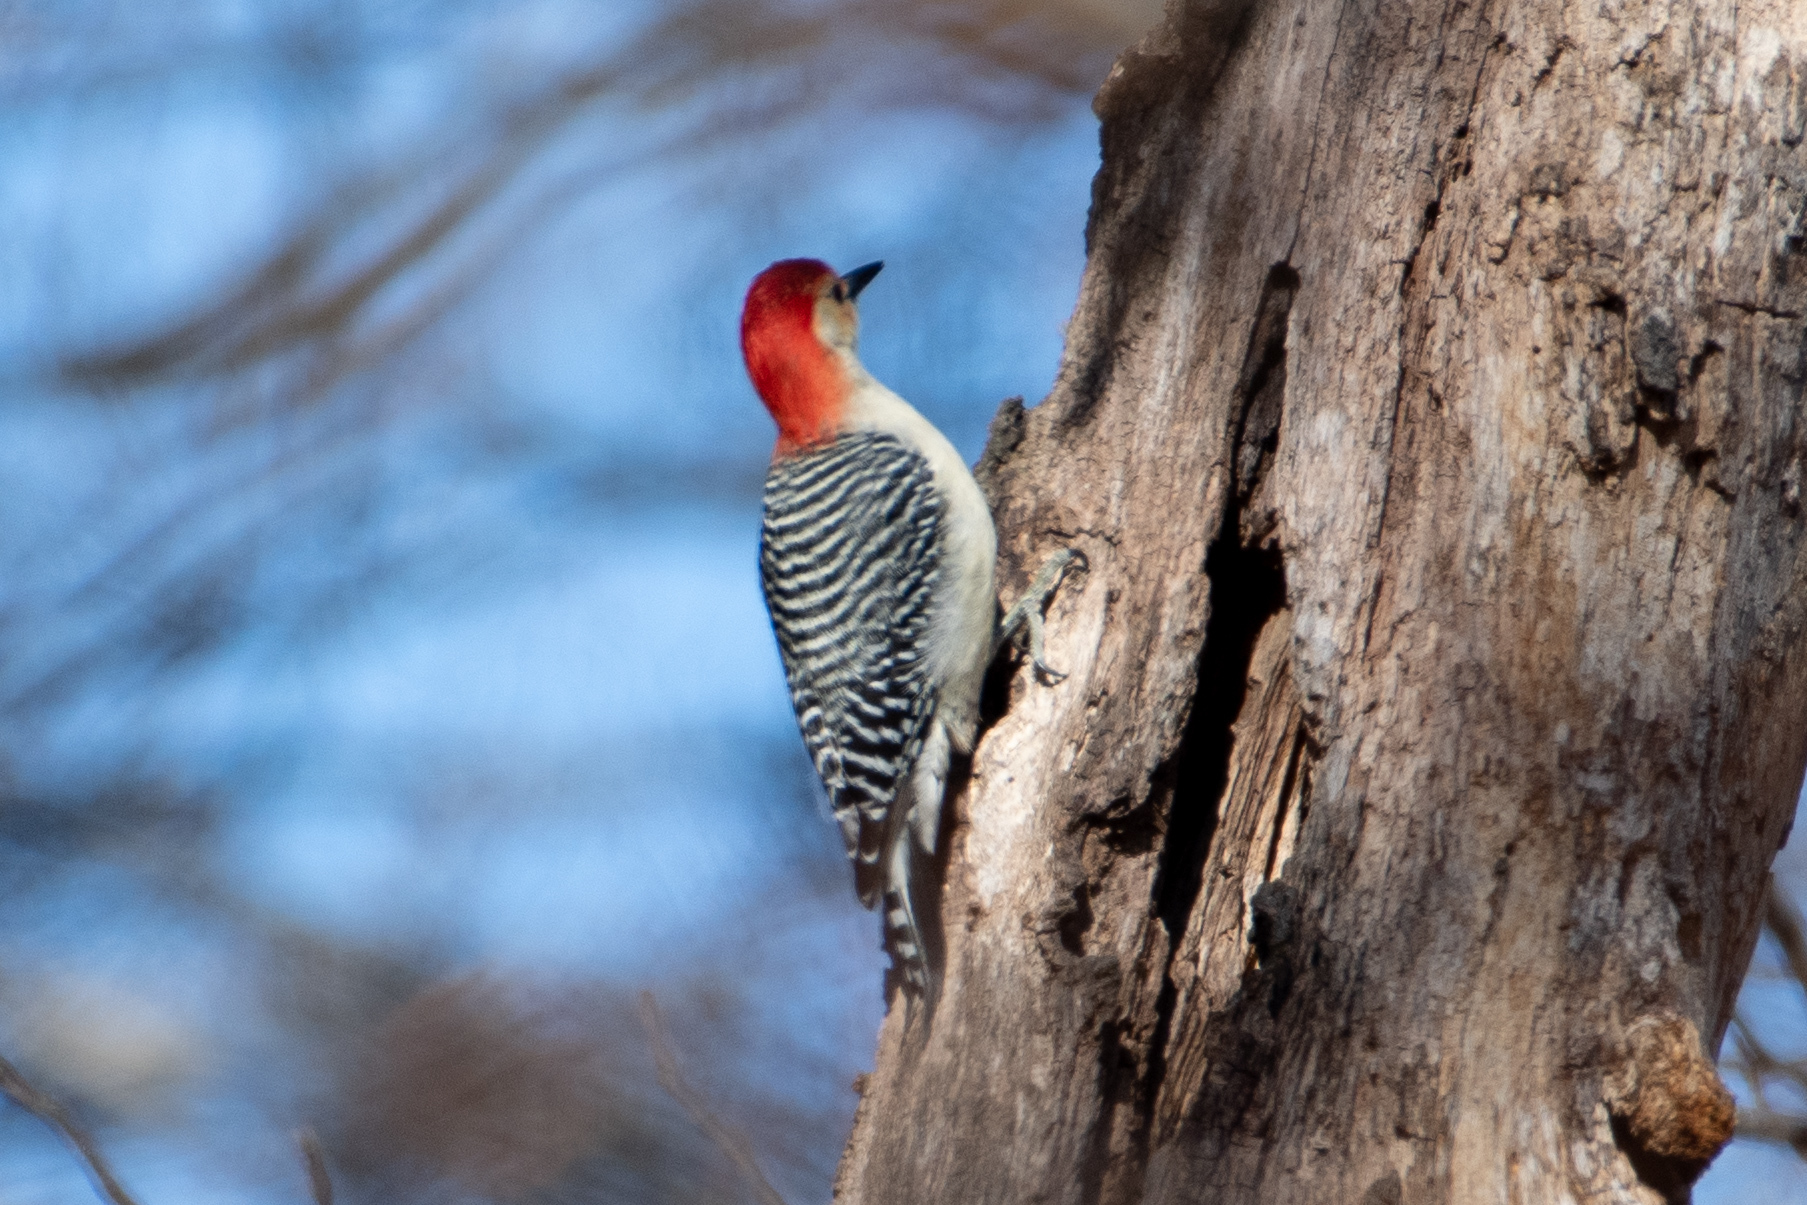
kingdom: Animalia
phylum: Chordata
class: Aves
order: Piciformes
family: Picidae
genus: Melanerpes
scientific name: Melanerpes carolinus
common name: Red-bellied woodpecker
